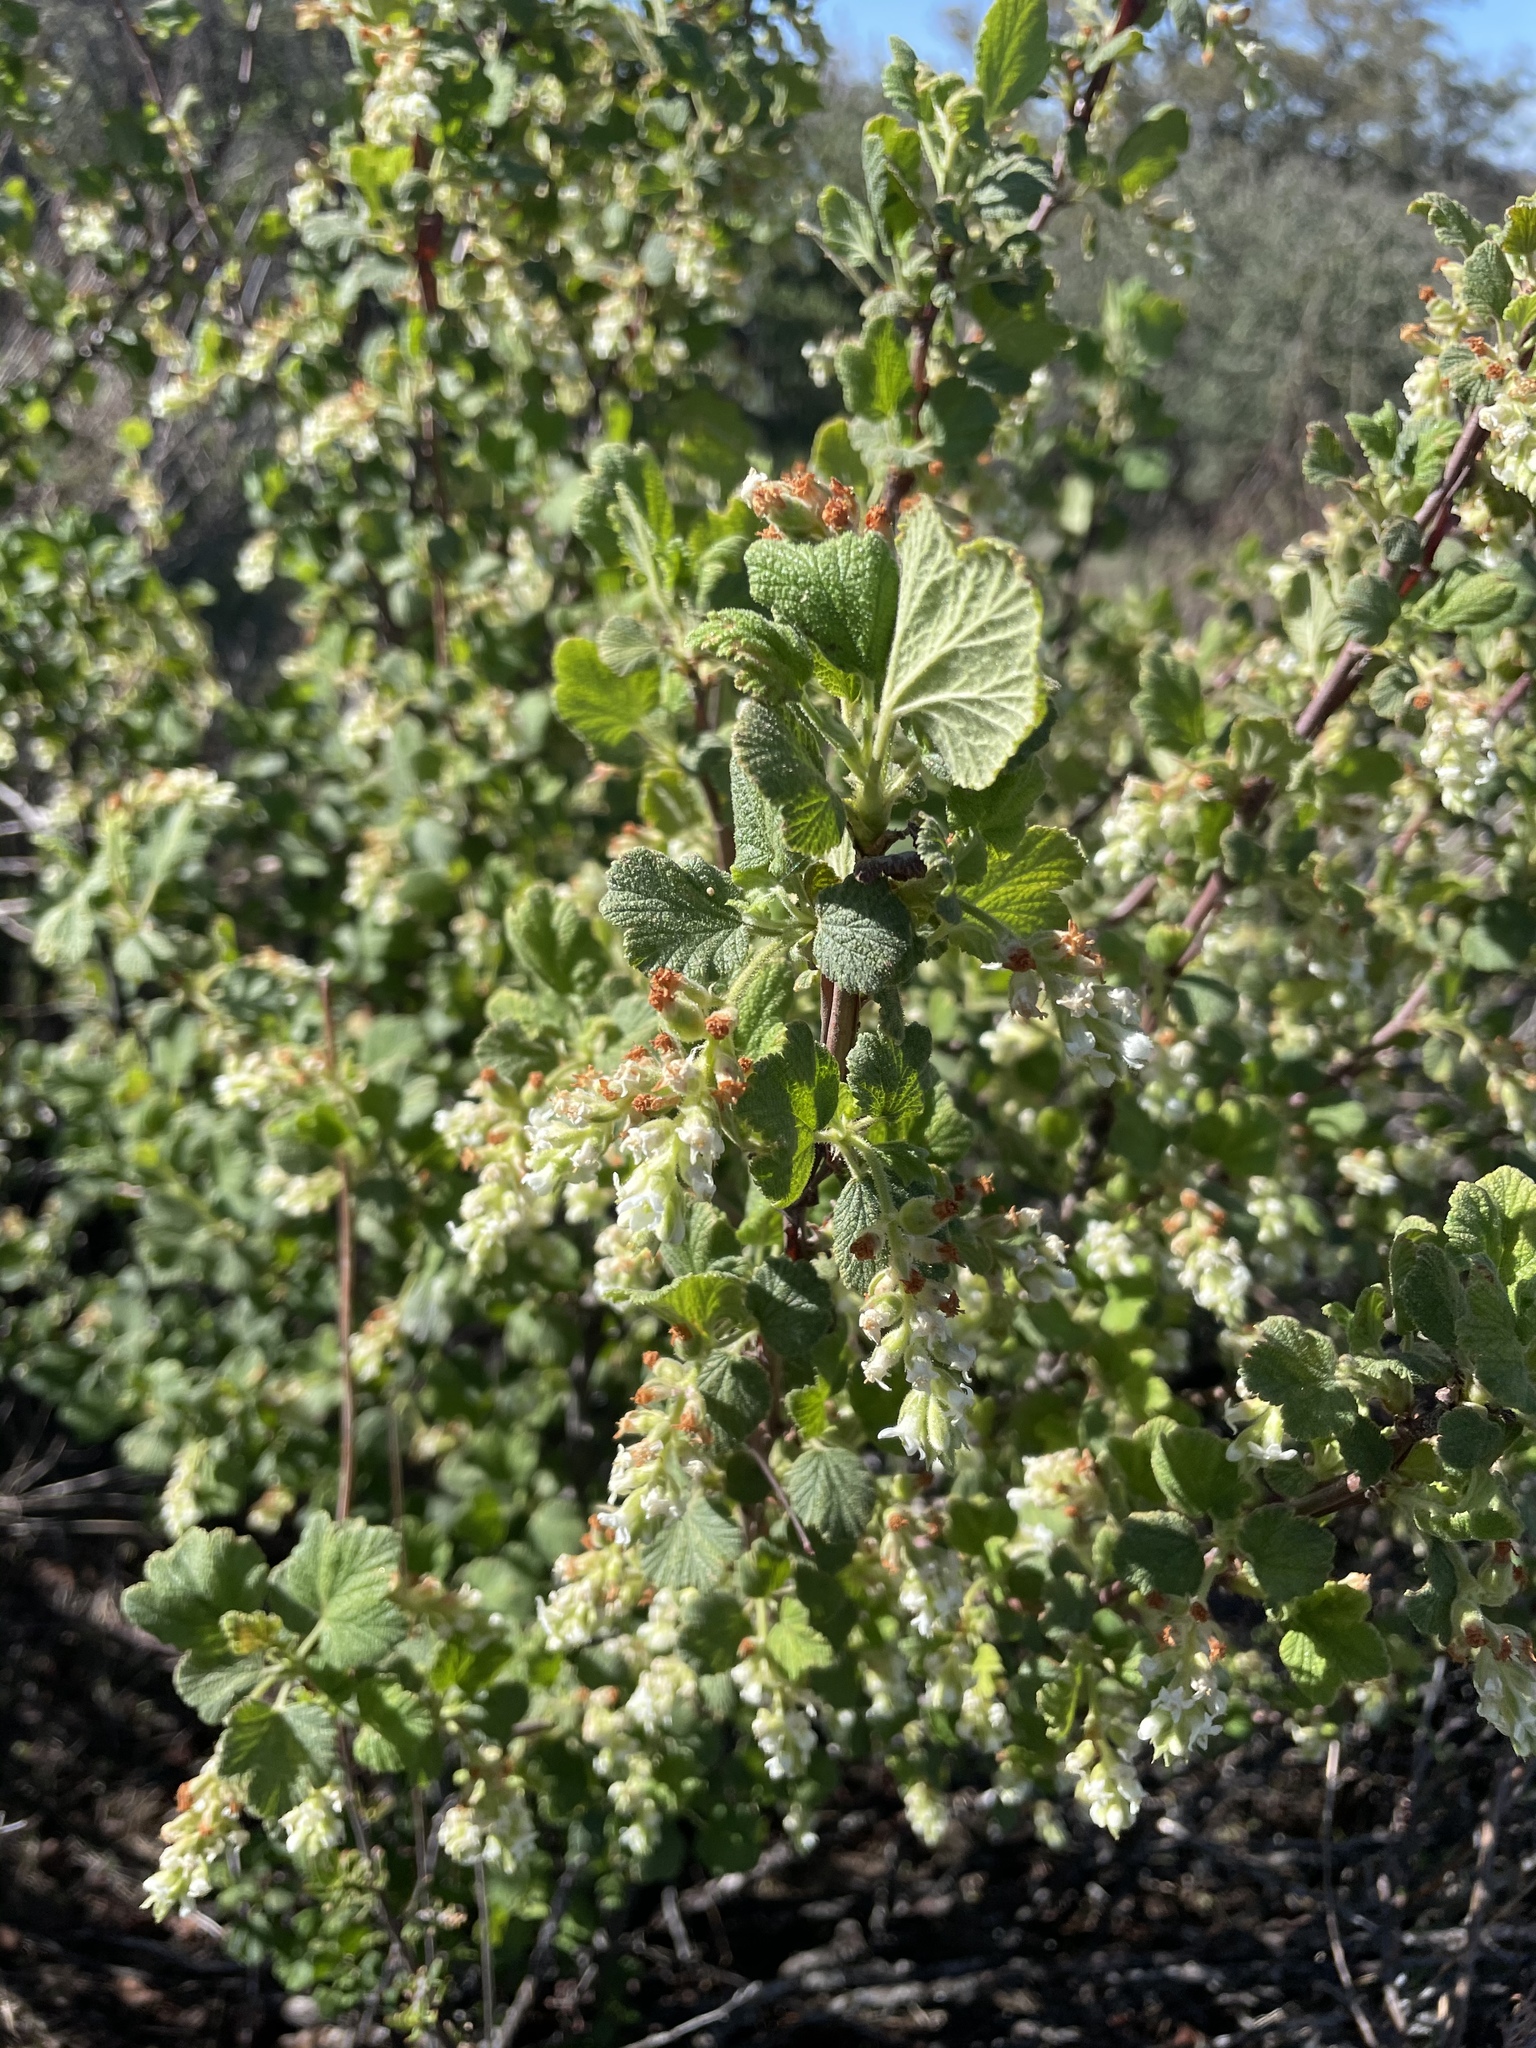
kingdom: Plantae
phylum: Tracheophyta
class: Magnoliopsida
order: Saxifragales
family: Grossulariaceae
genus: Ribes
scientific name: Ribes indecorum
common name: White-flower currant
